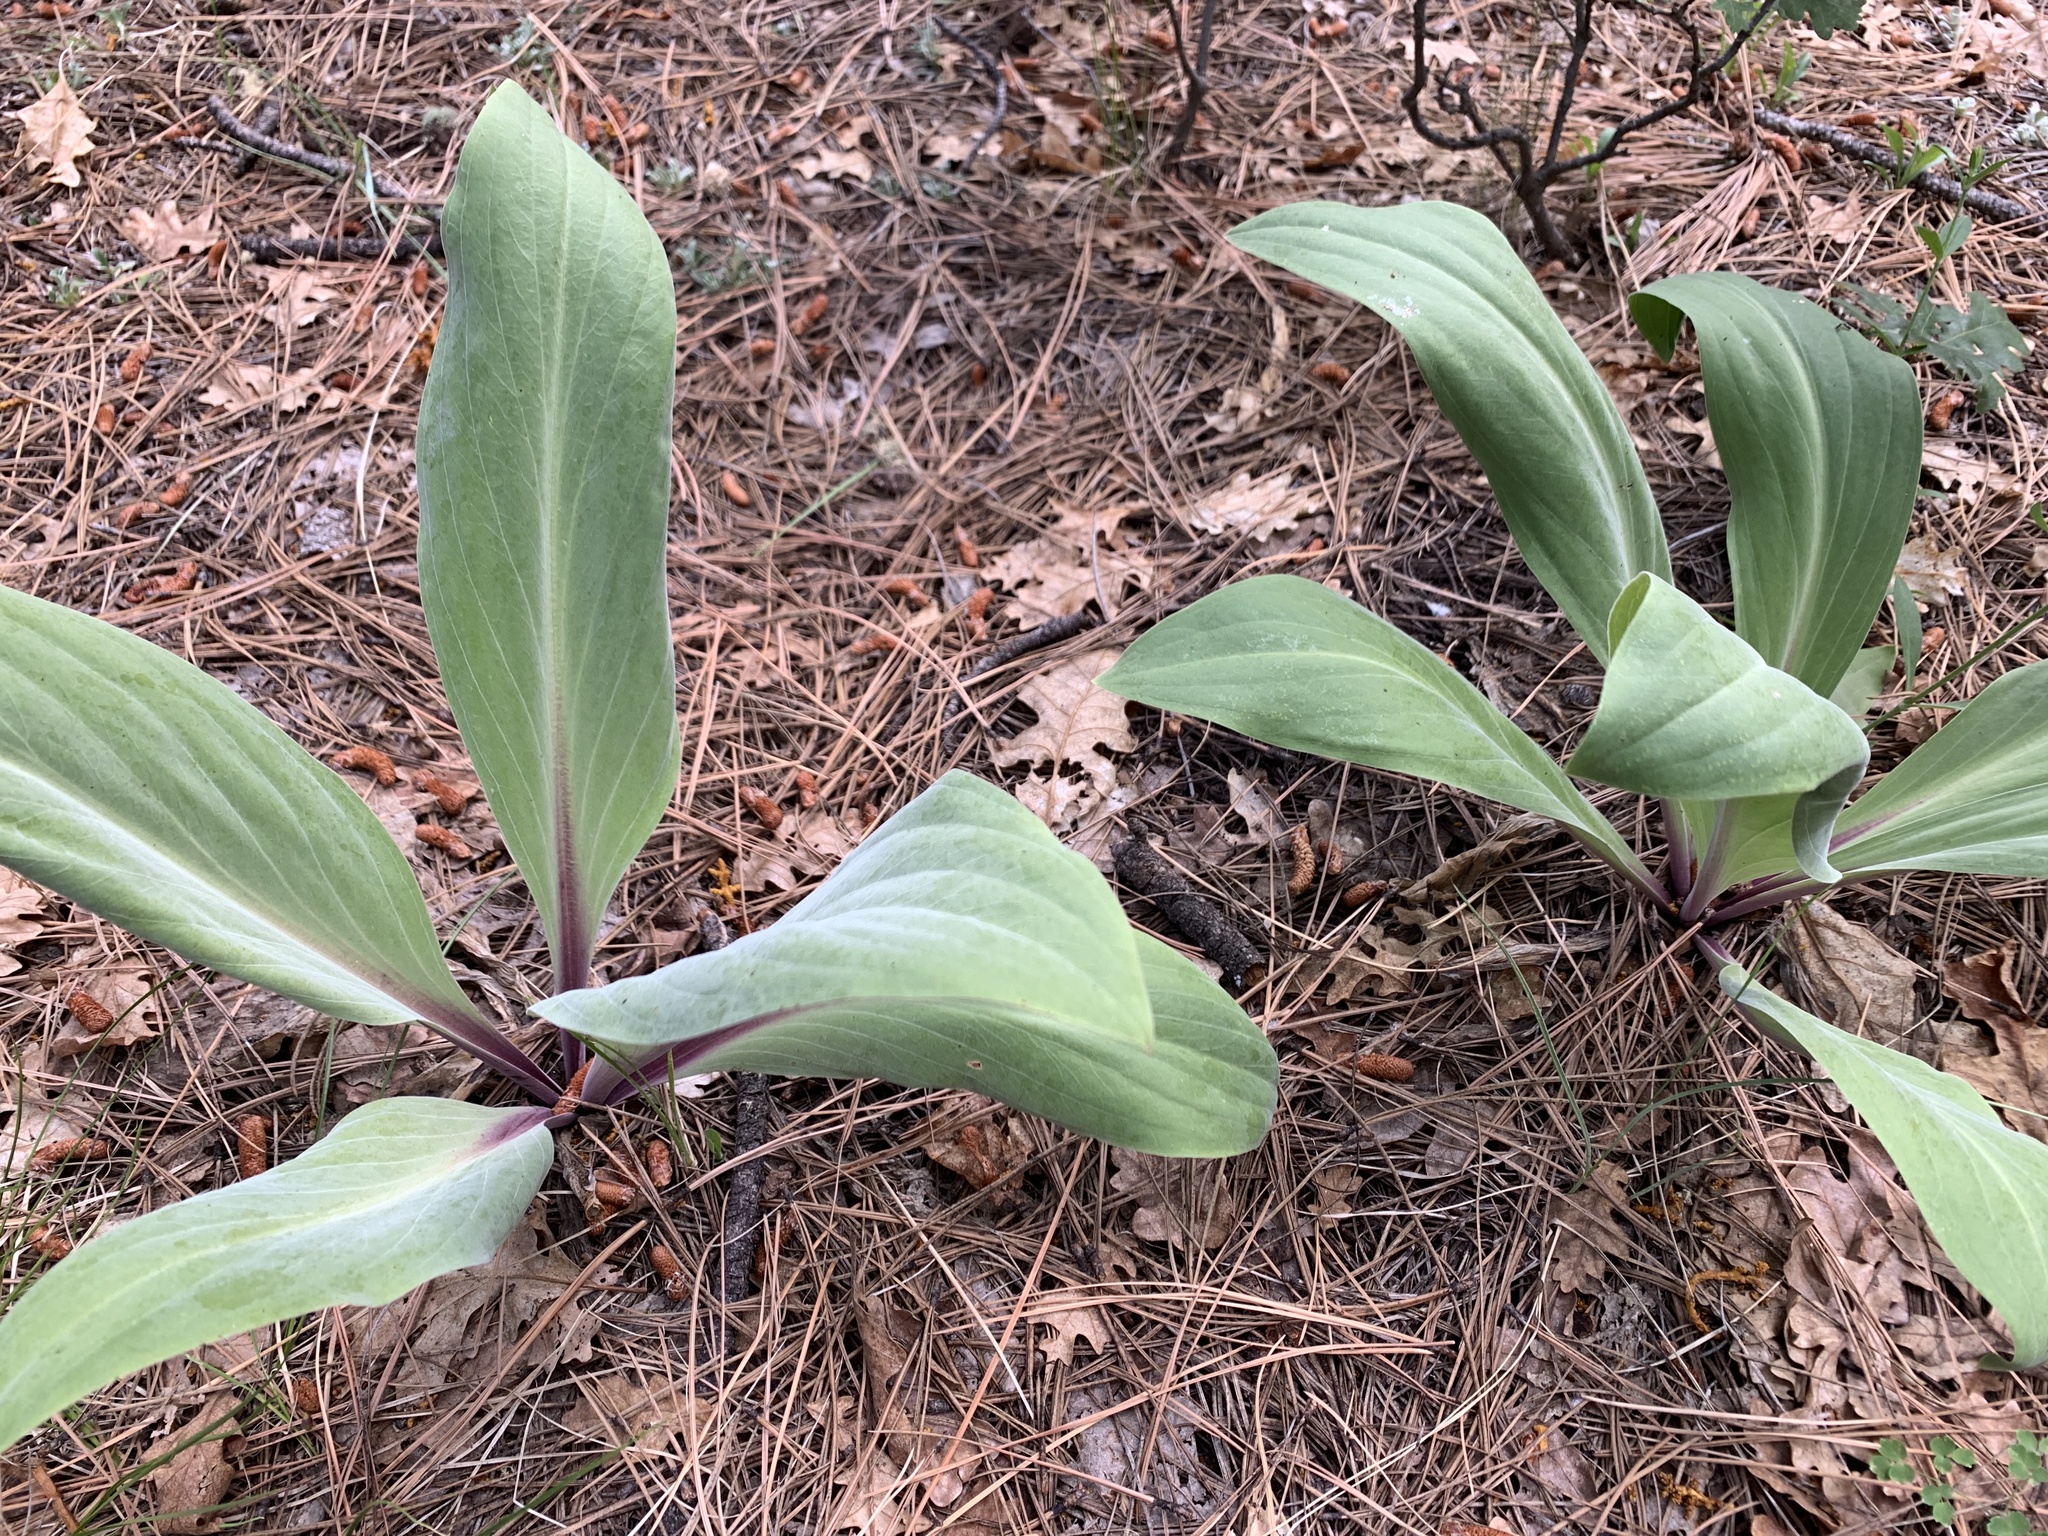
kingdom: Plantae
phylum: Tracheophyta
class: Magnoliopsida
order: Gentianales
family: Gentianaceae
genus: Frasera
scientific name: Frasera speciosa
